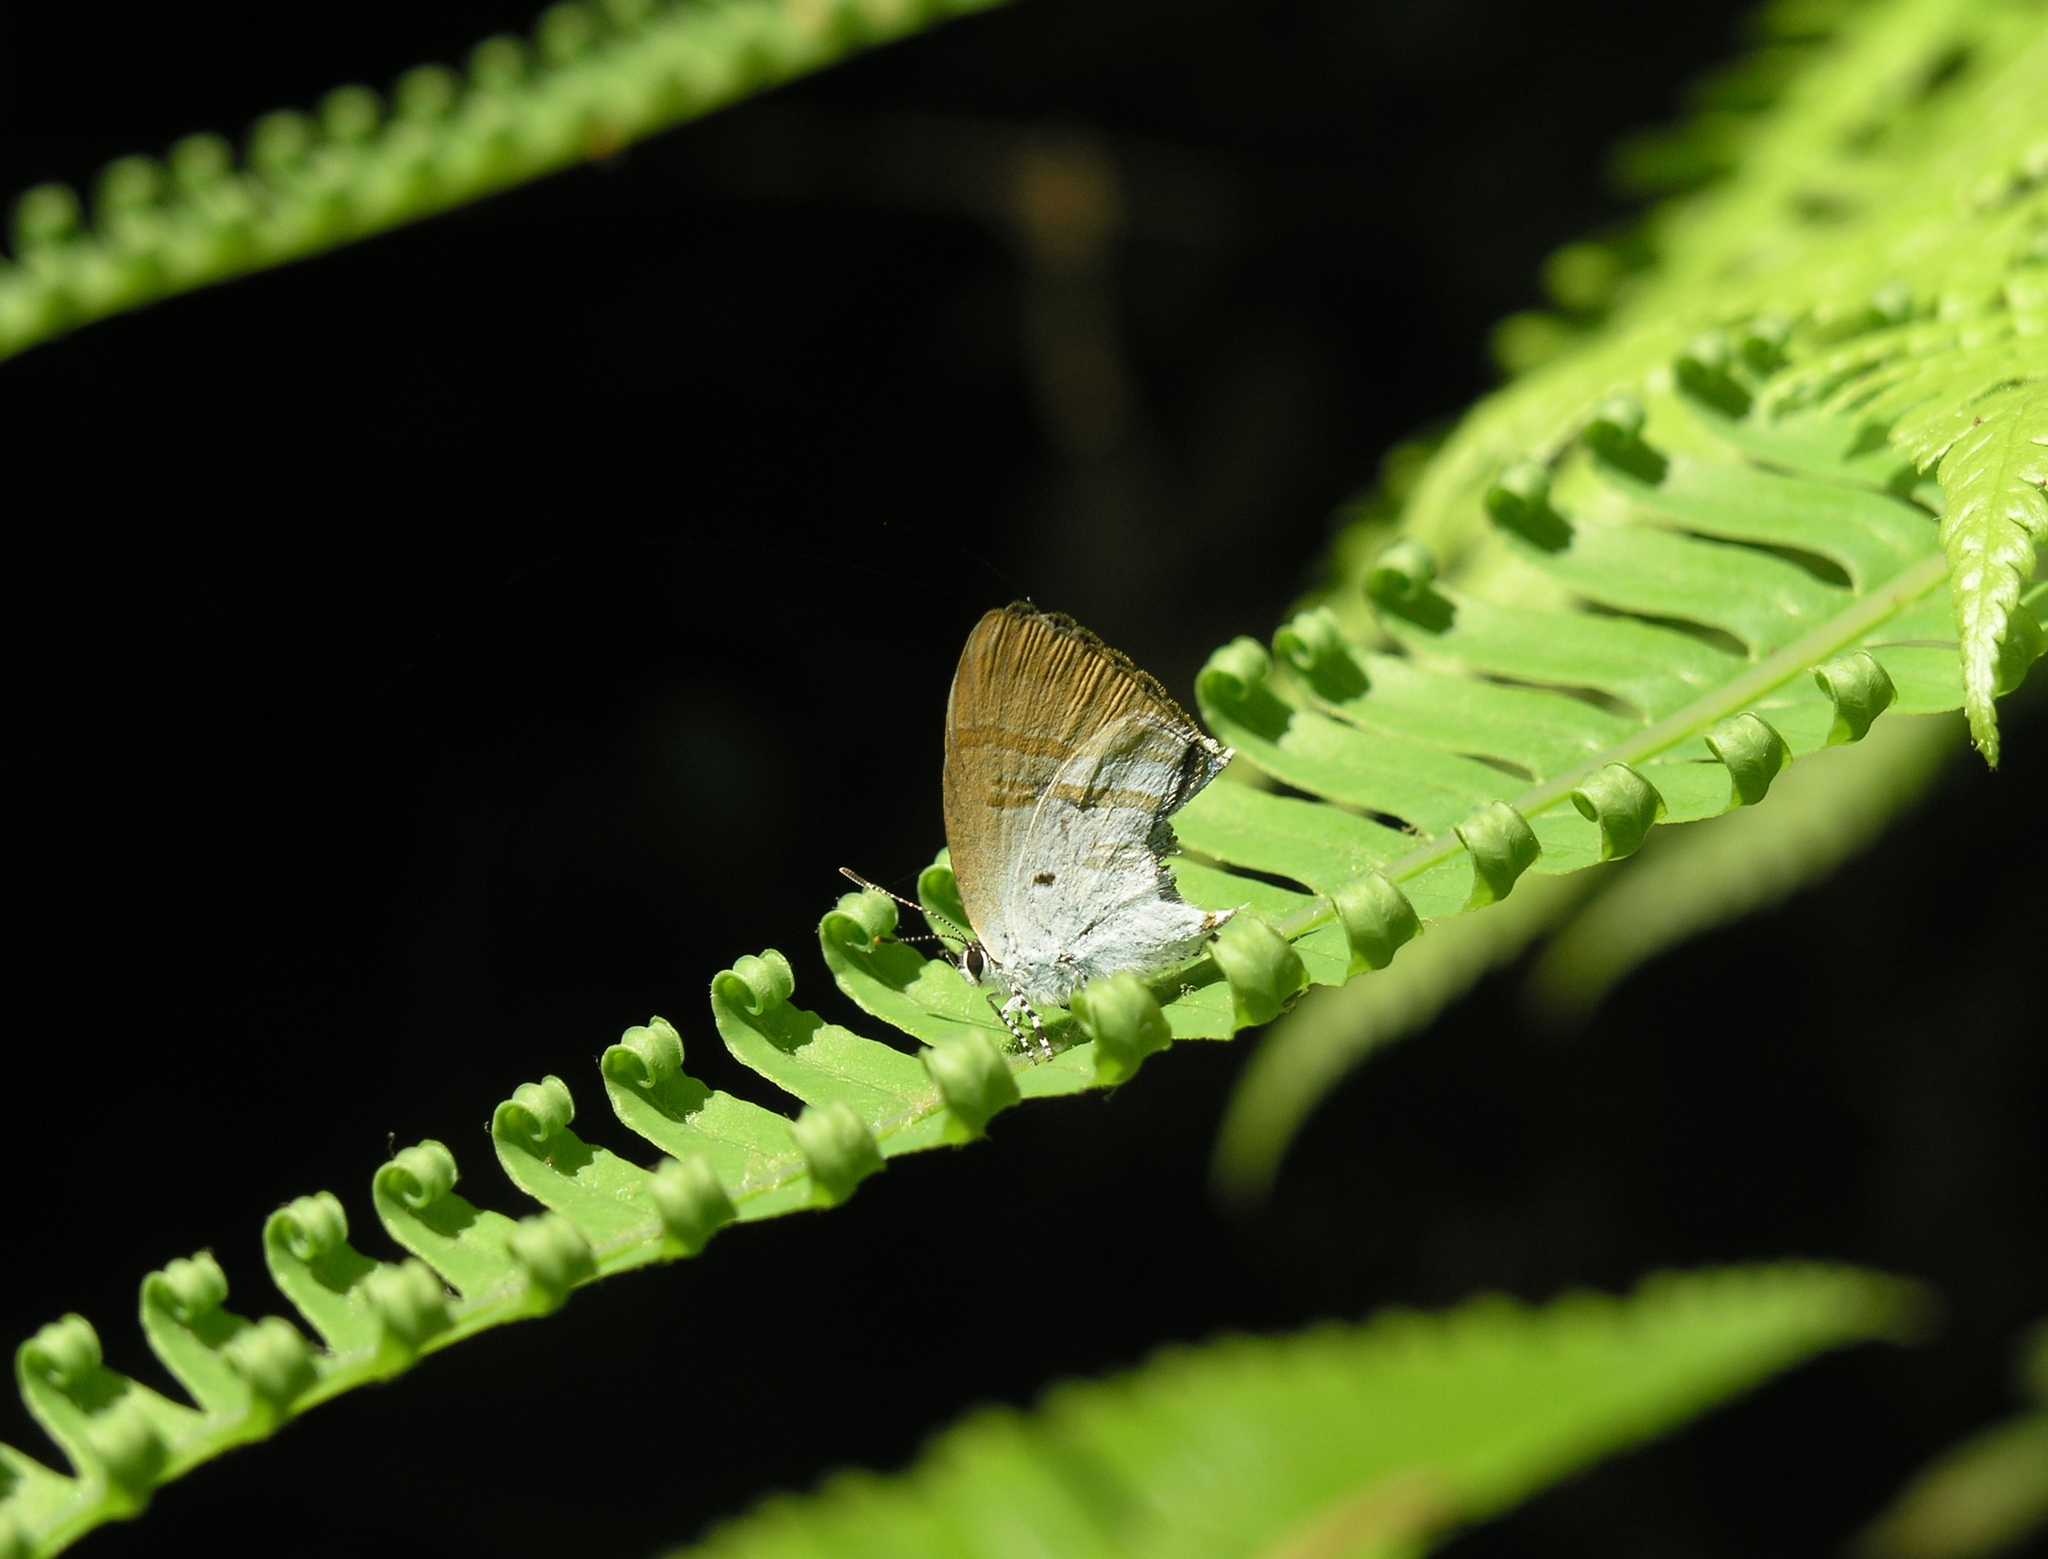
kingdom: Animalia
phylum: Arthropoda
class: Insecta
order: Lepidoptera
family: Lycaenidae
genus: Zeltus
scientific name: Zeltus amasa
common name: Fluffy tit
